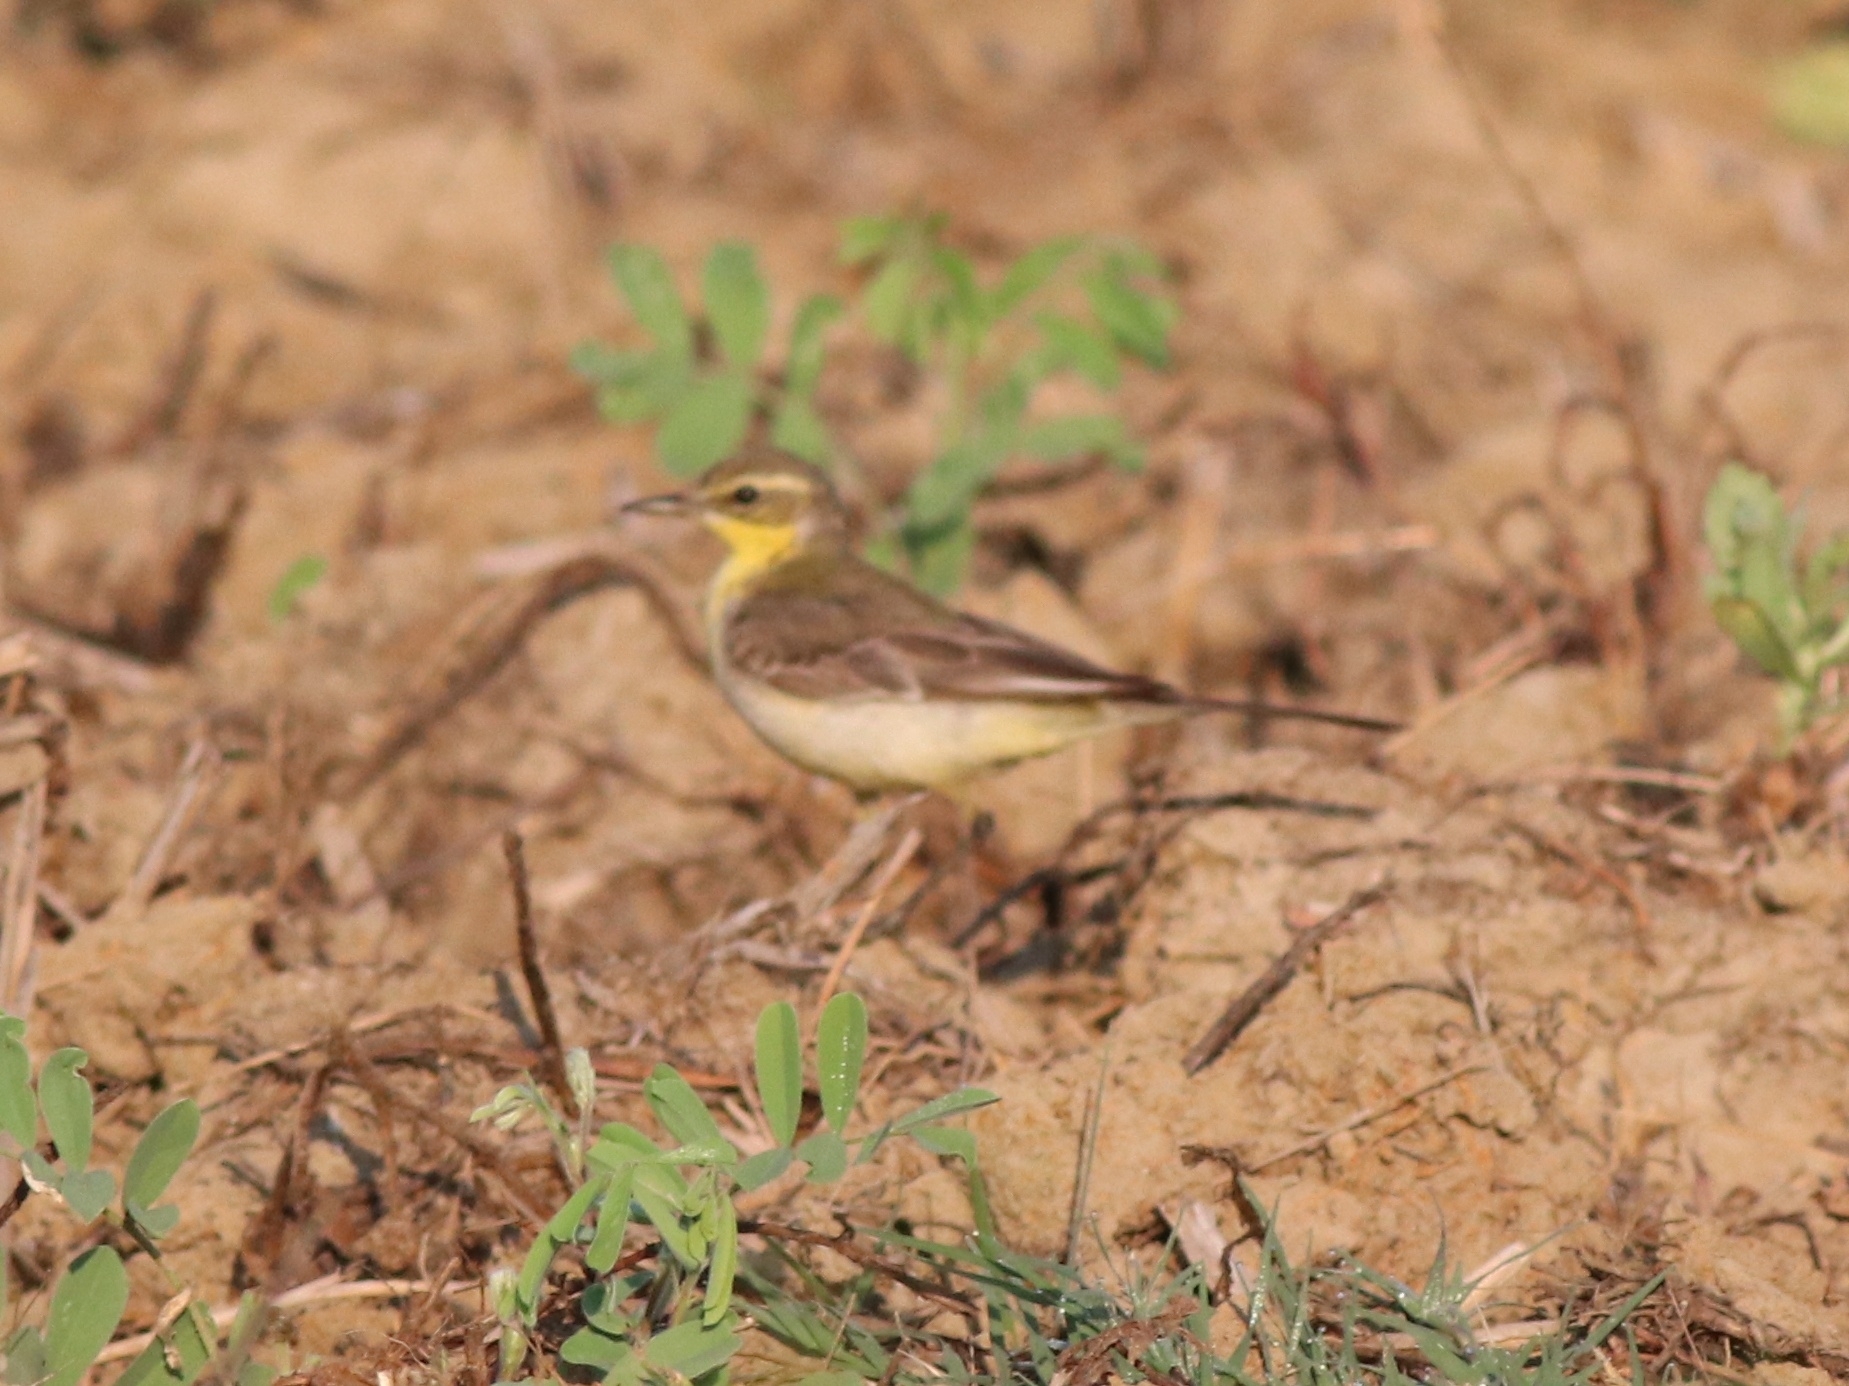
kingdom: Animalia
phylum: Chordata
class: Aves
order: Passeriformes
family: Motacillidae
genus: Motacilla
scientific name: Motacilla flava
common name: Western yellow wagtail
